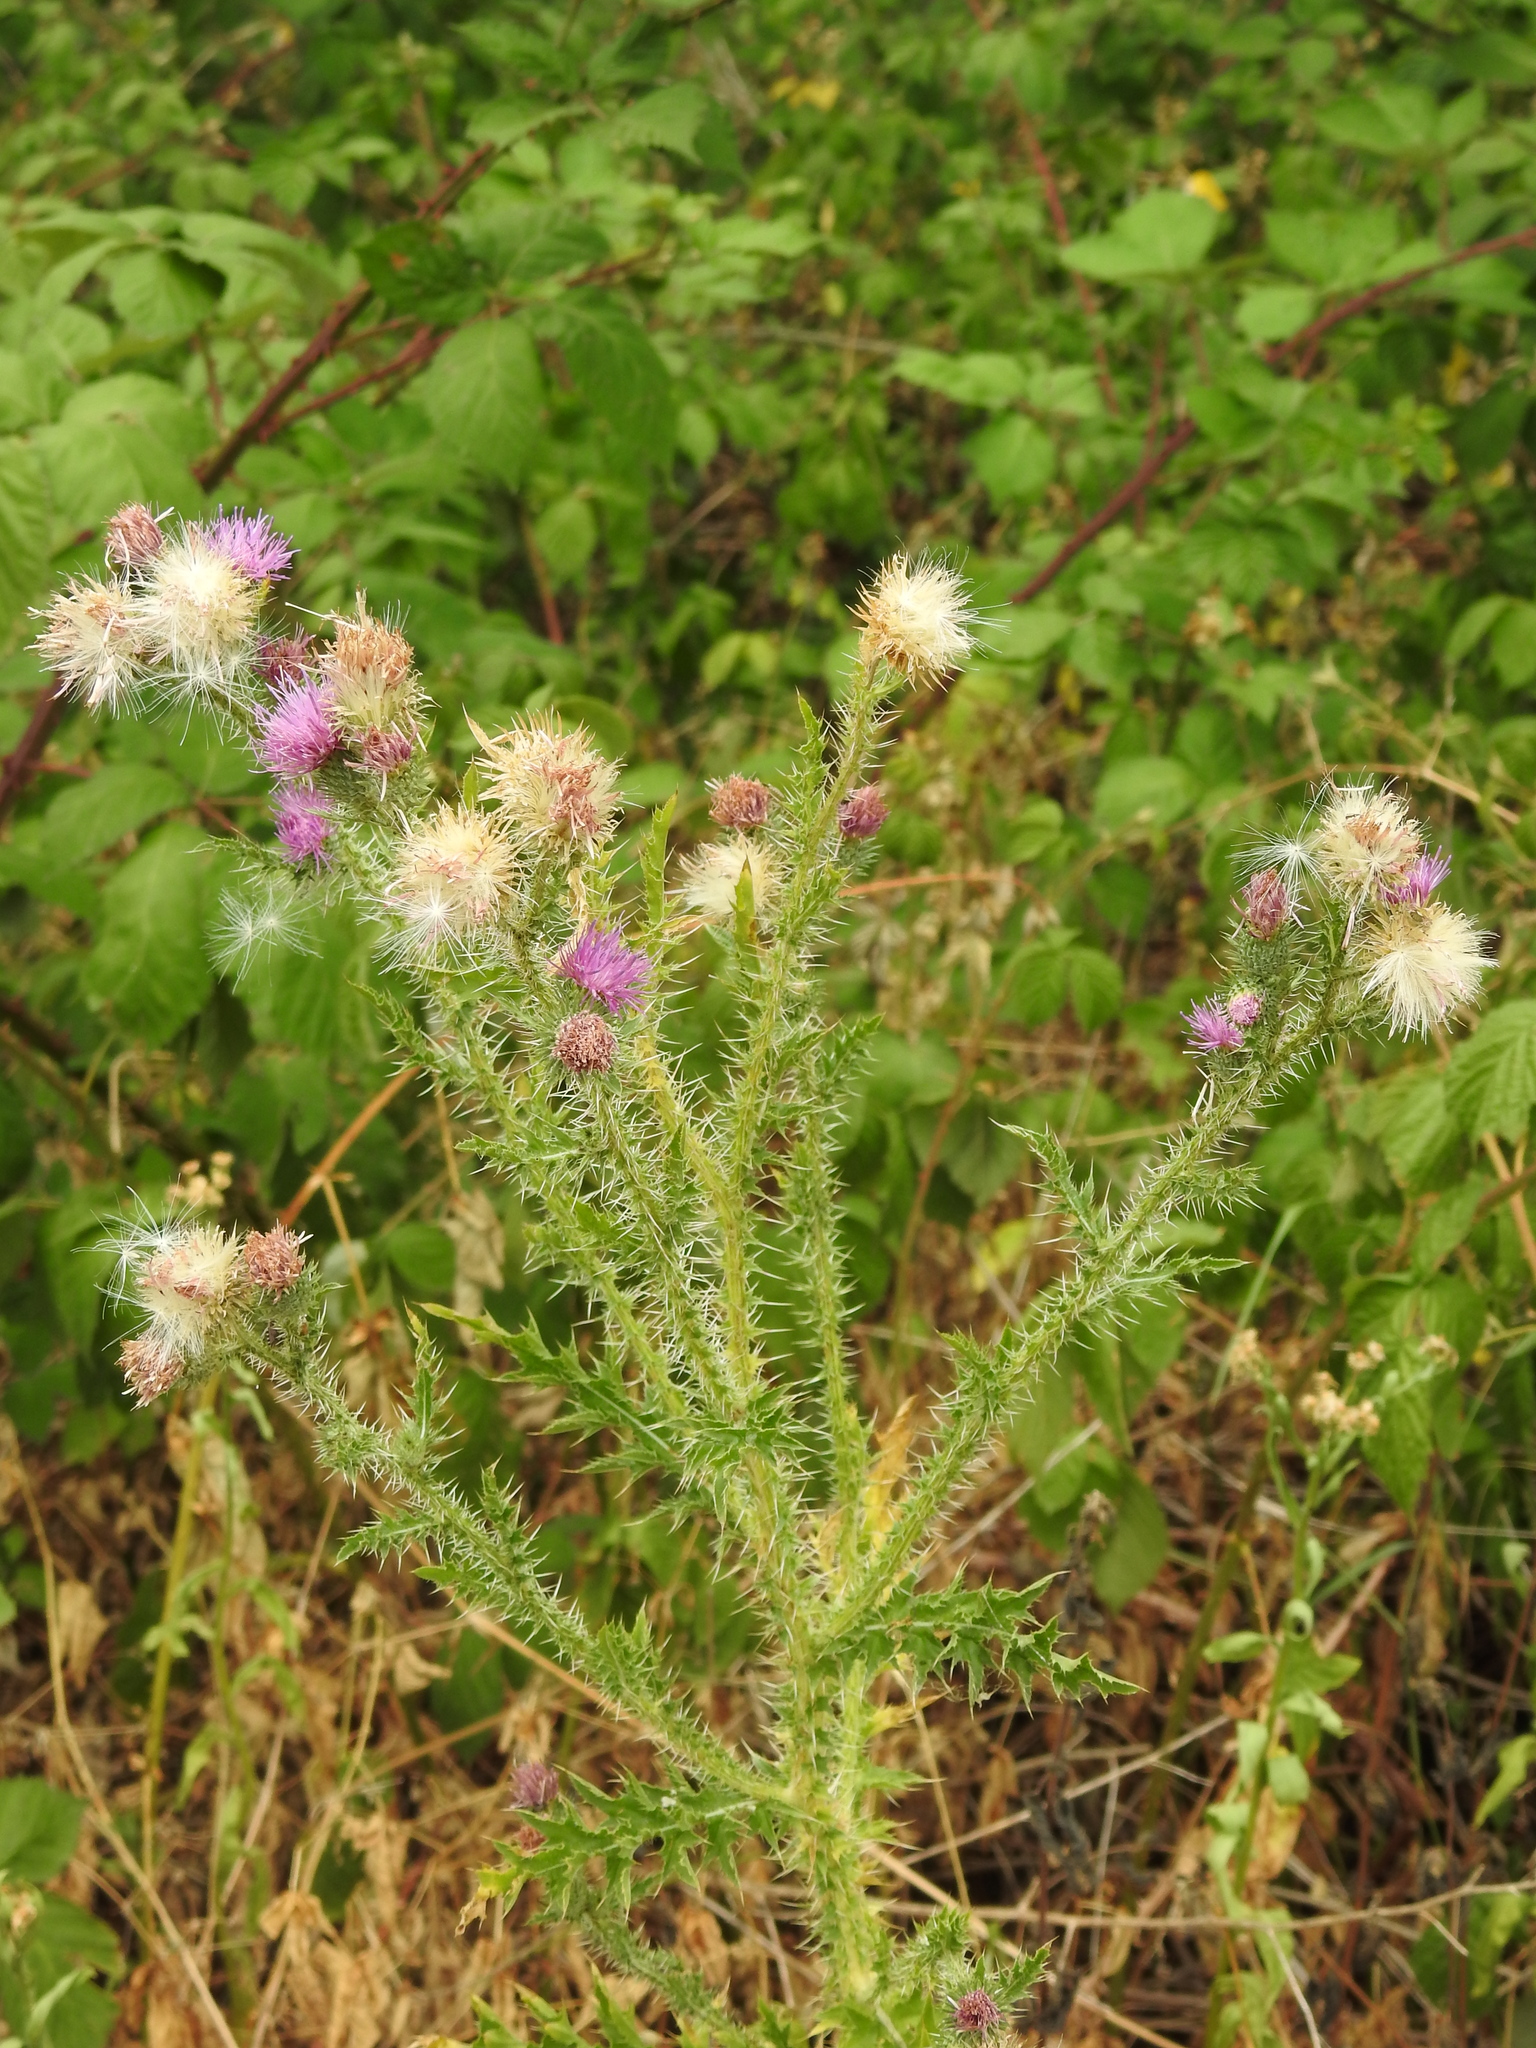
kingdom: Plantae
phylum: Tracheophyta
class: Magnoliopsida
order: Asterales
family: Asteraceae
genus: Carduus
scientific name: Carduus acanthoides
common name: Plumeless thistle
